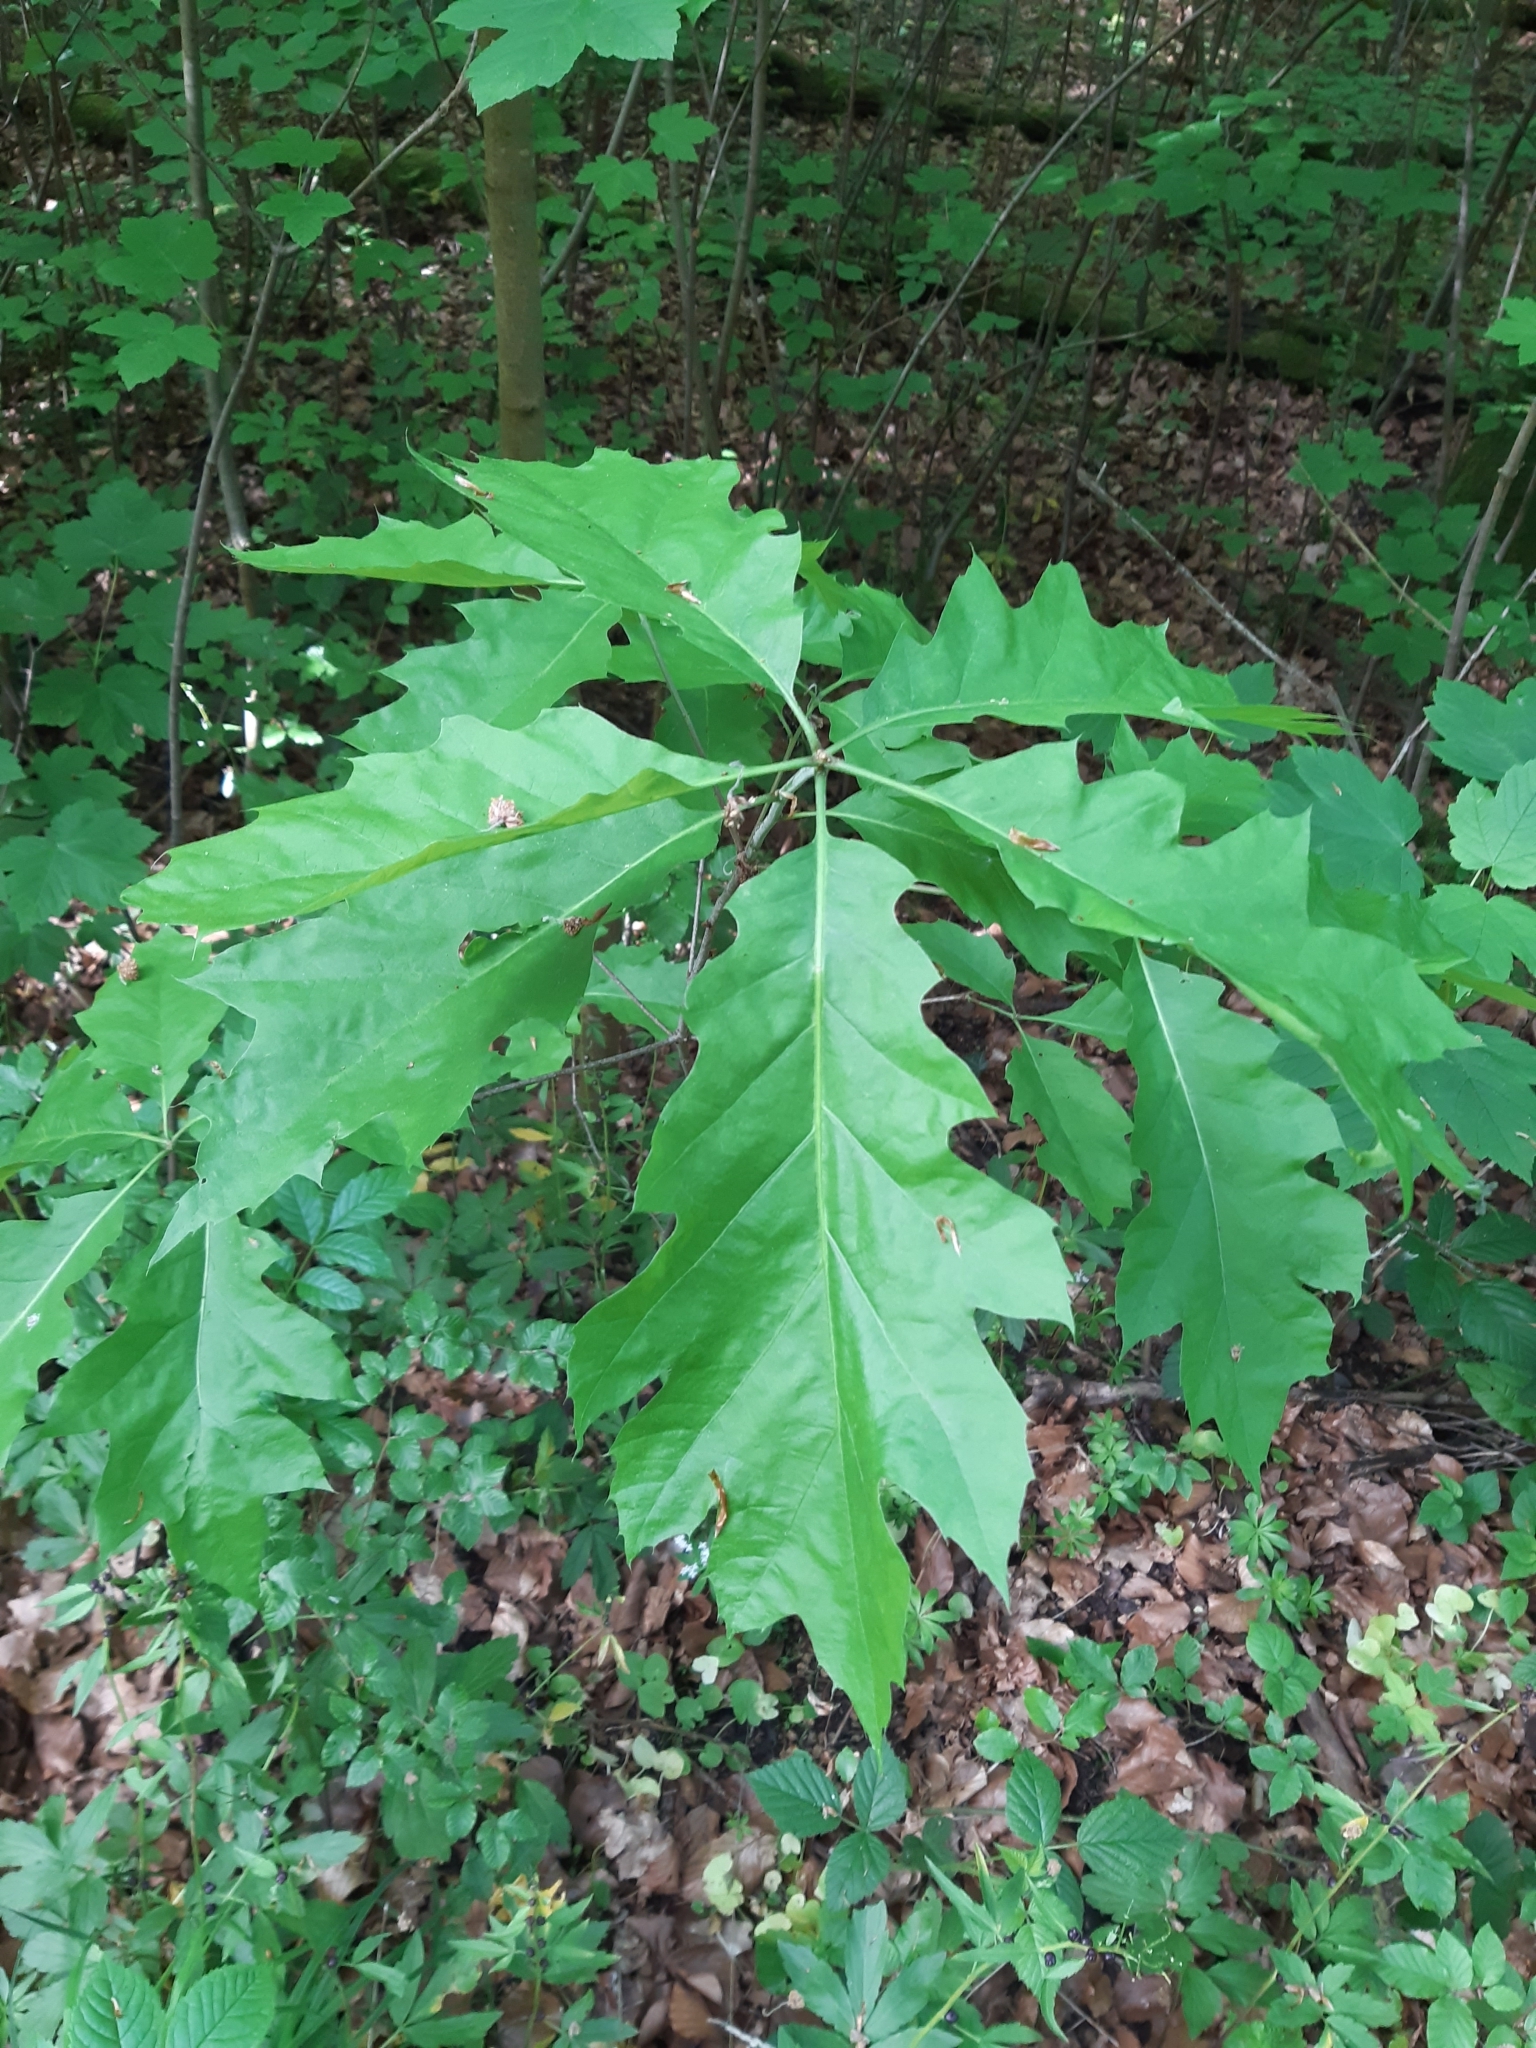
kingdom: Plantae
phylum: Tracheophyta
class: Magnoliopsida
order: Fagales
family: Fagaceae
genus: Quercus
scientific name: Quercus rubra
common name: Red oak
